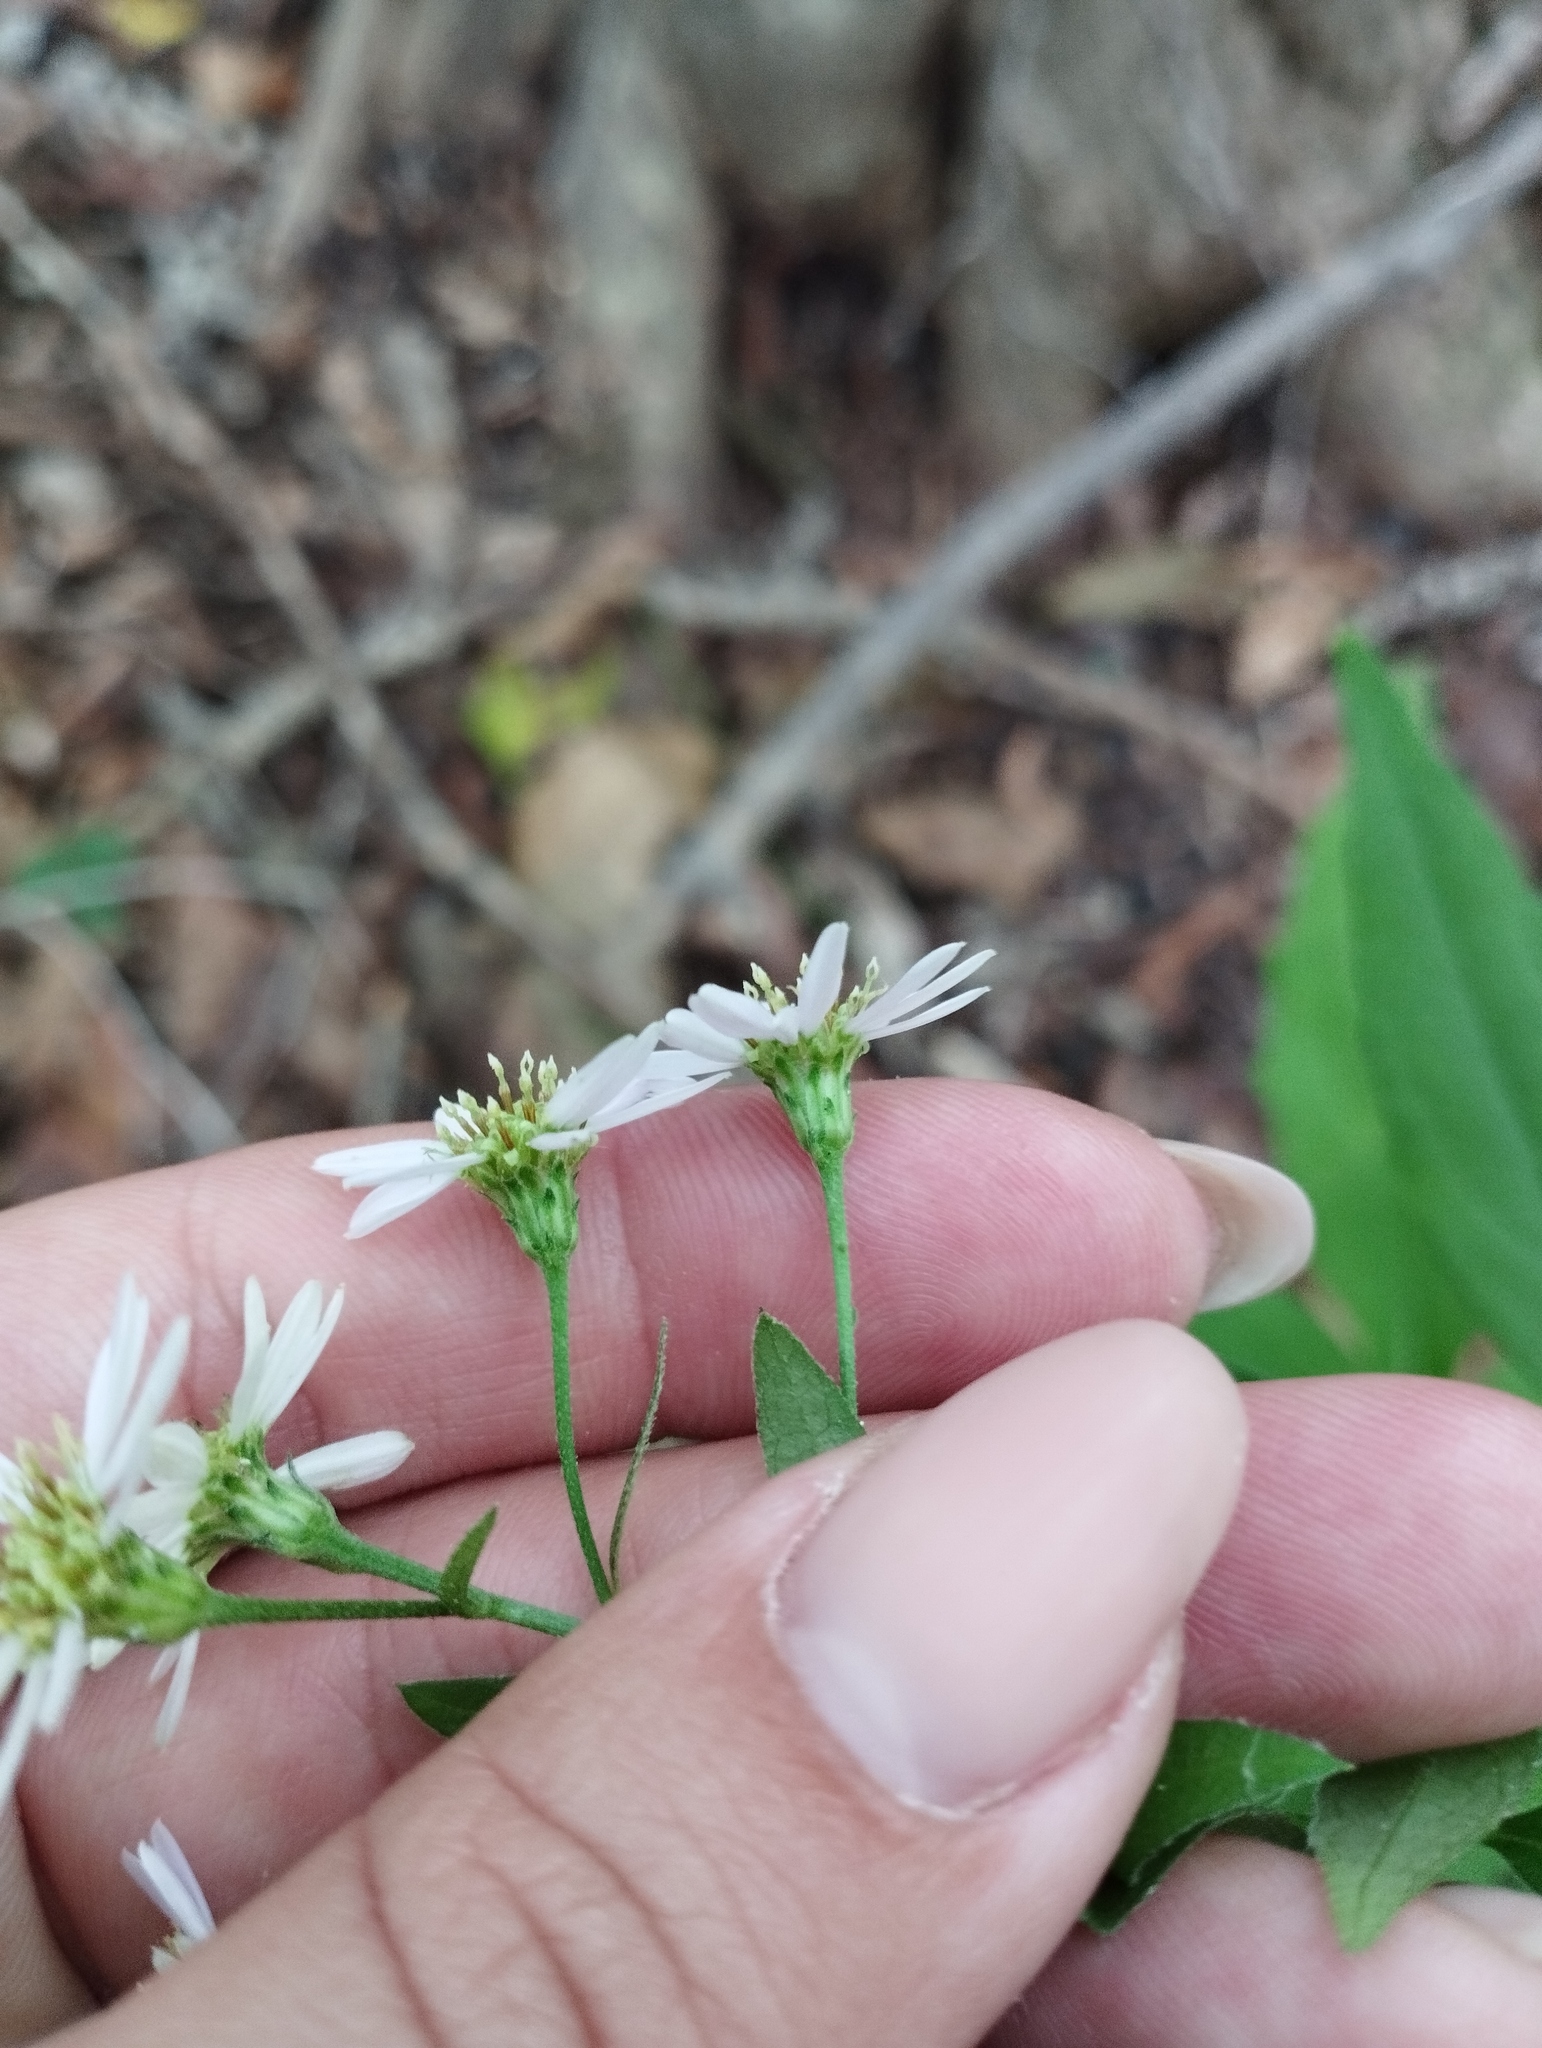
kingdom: Plantae
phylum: Tracheophyta
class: Magnoliopsida
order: Asterales
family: Asteraceae
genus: Aster
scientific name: Aster ageratoides
